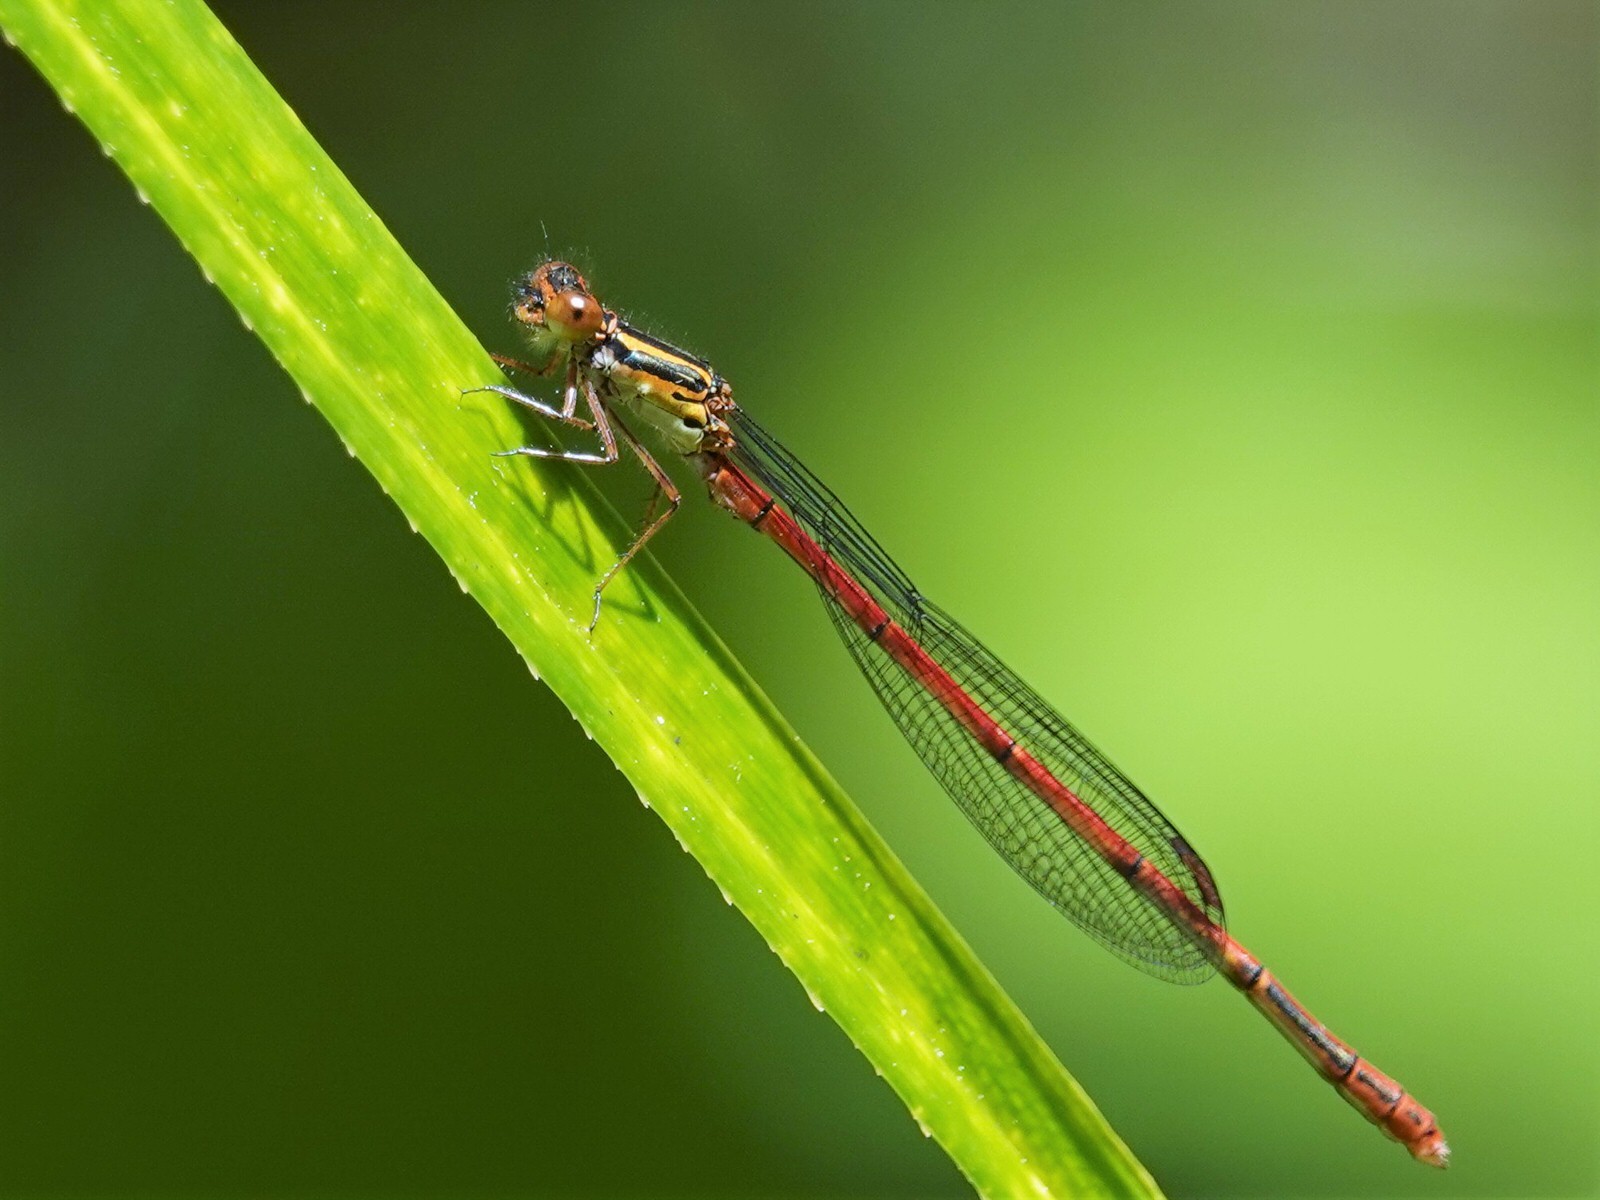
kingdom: Animalia
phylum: Arthropoda
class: Insecta
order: Odonata
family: Coenagrionidae
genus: Xanthocnemis
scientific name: Xanthocnemis zealandica
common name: Common redcoat damselfly
